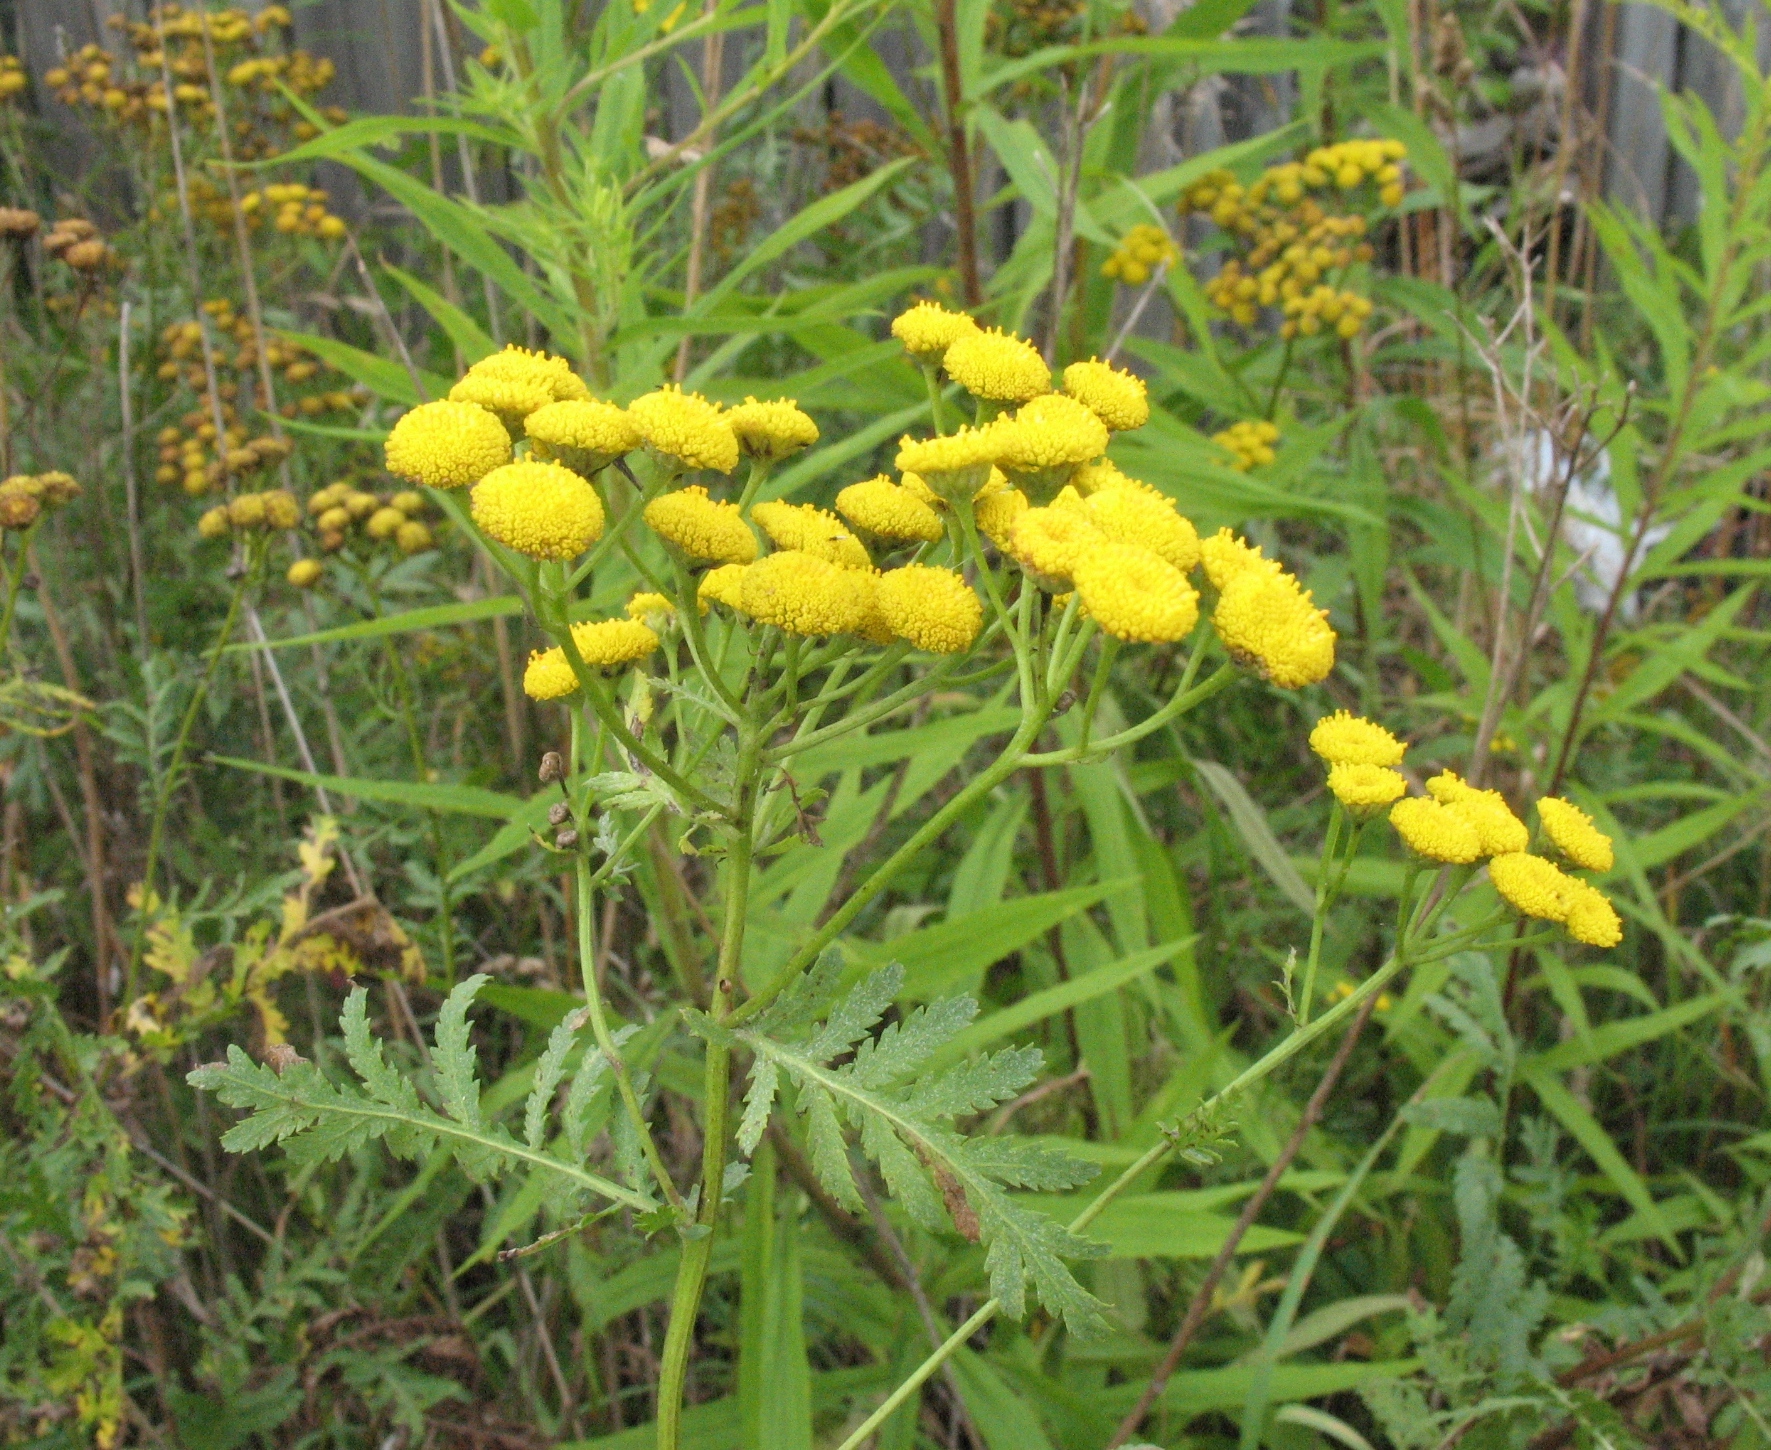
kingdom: Plantae
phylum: Tracheophyta
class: Magnoliopsida
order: Asterales
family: Asteraceae
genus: Tanacetum
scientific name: Tanacetum vulgare
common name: Common tansy
